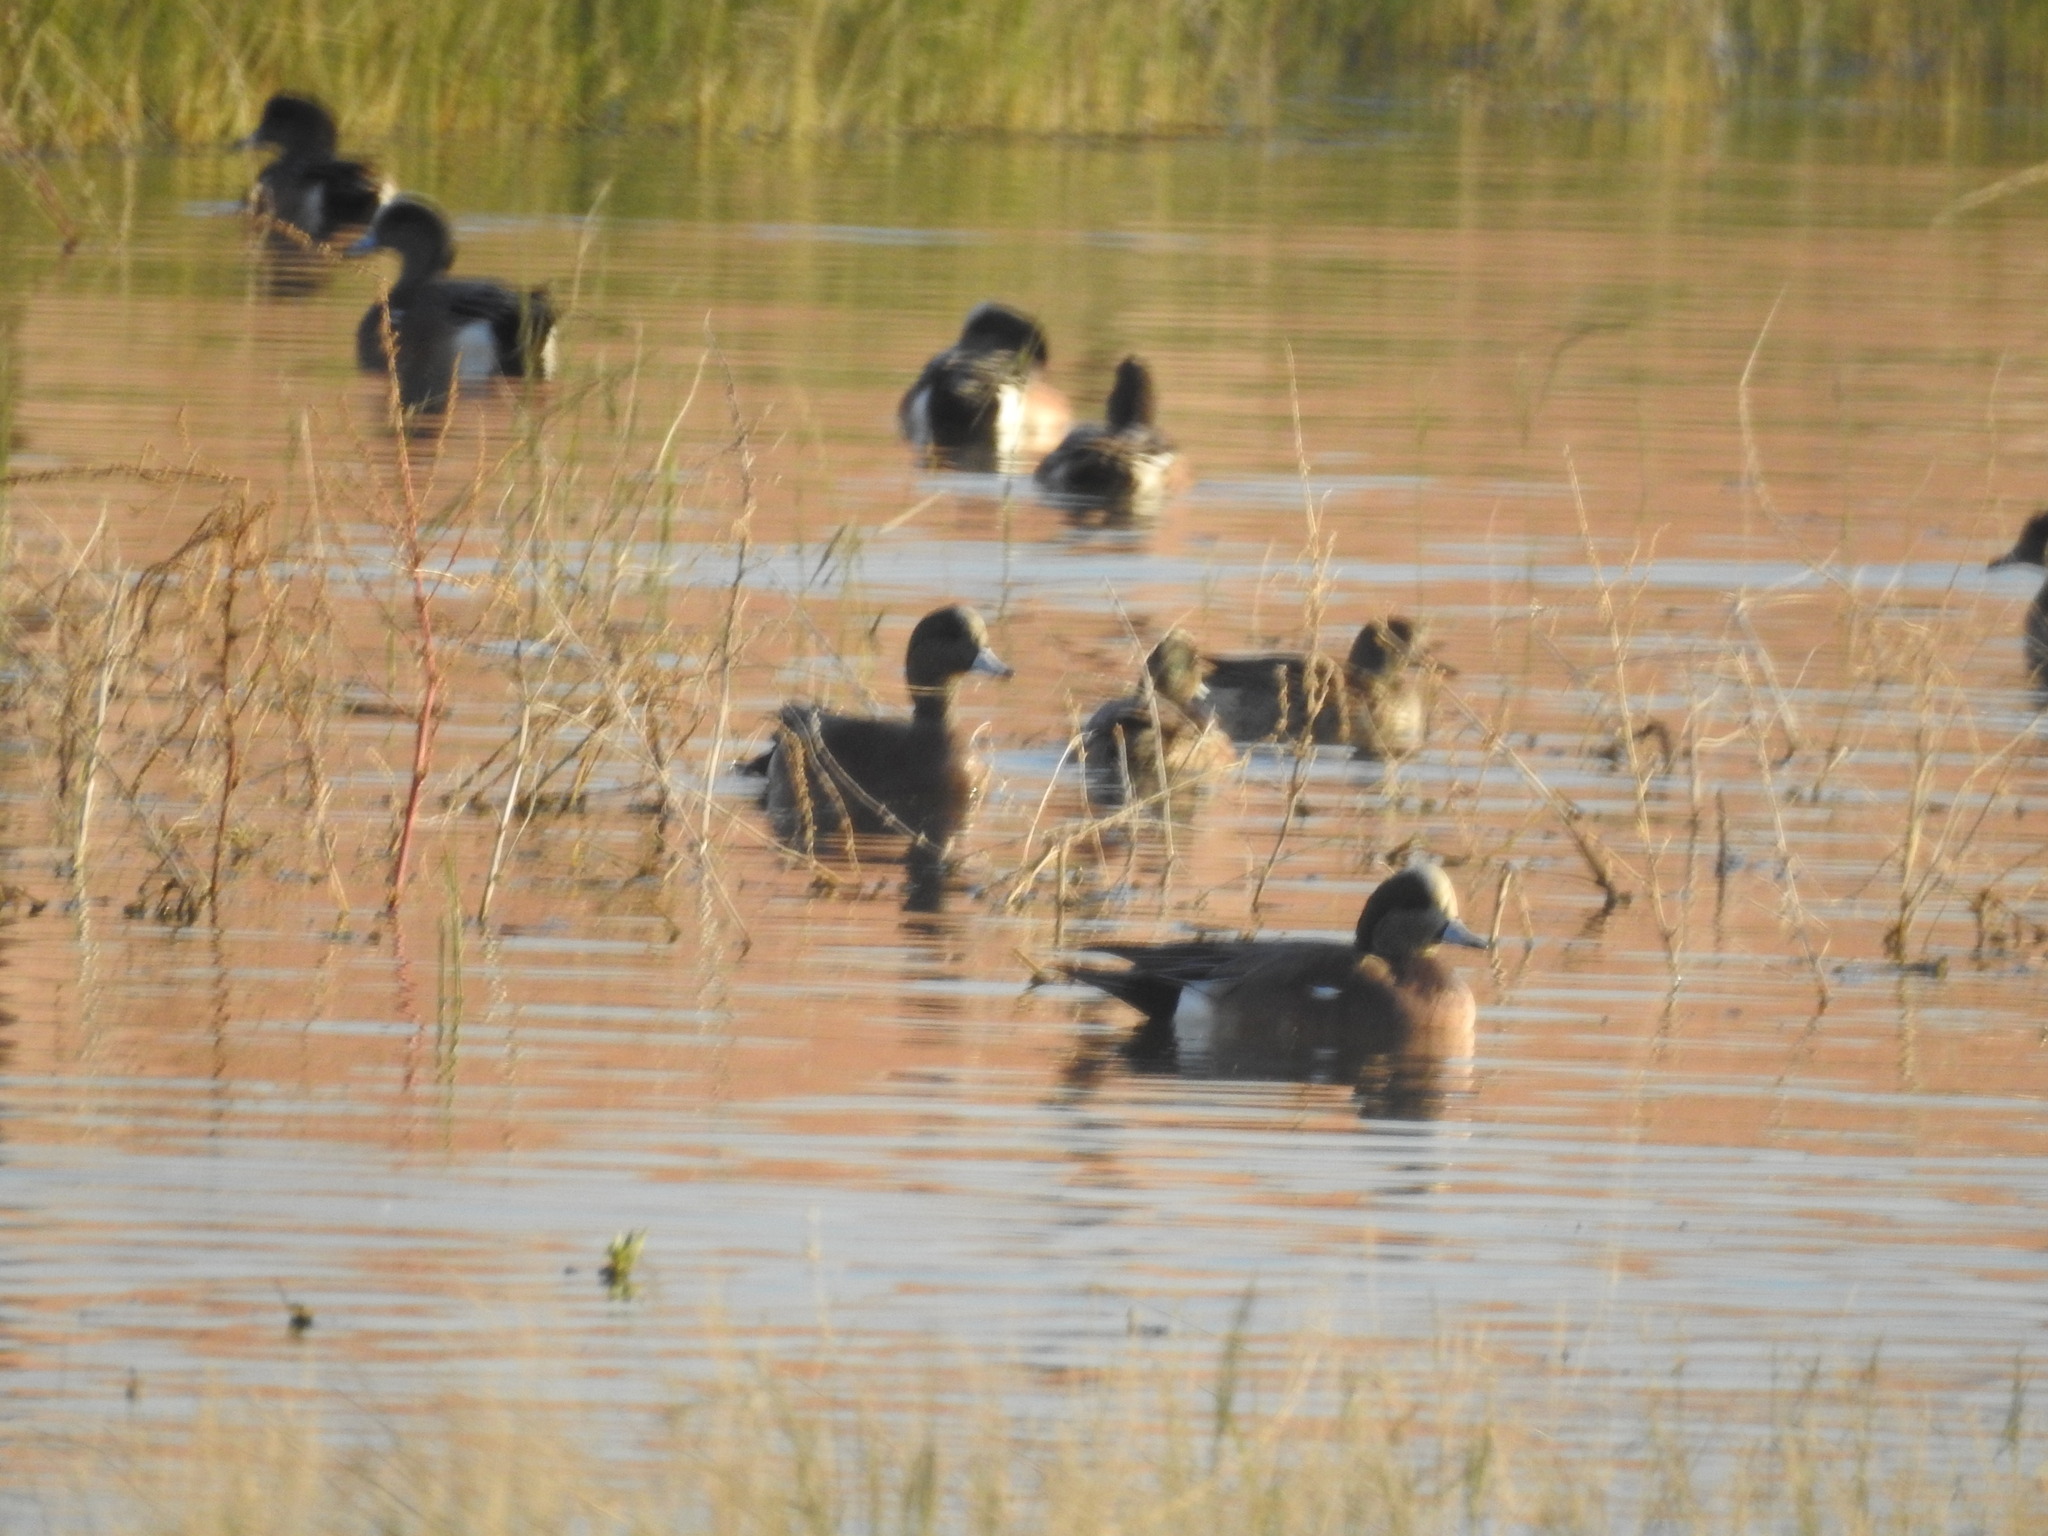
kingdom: Animalia
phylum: Chordata
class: Aves
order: Anseriformes
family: Anatidae
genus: Mareca
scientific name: Mareca americana
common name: American wigeon
